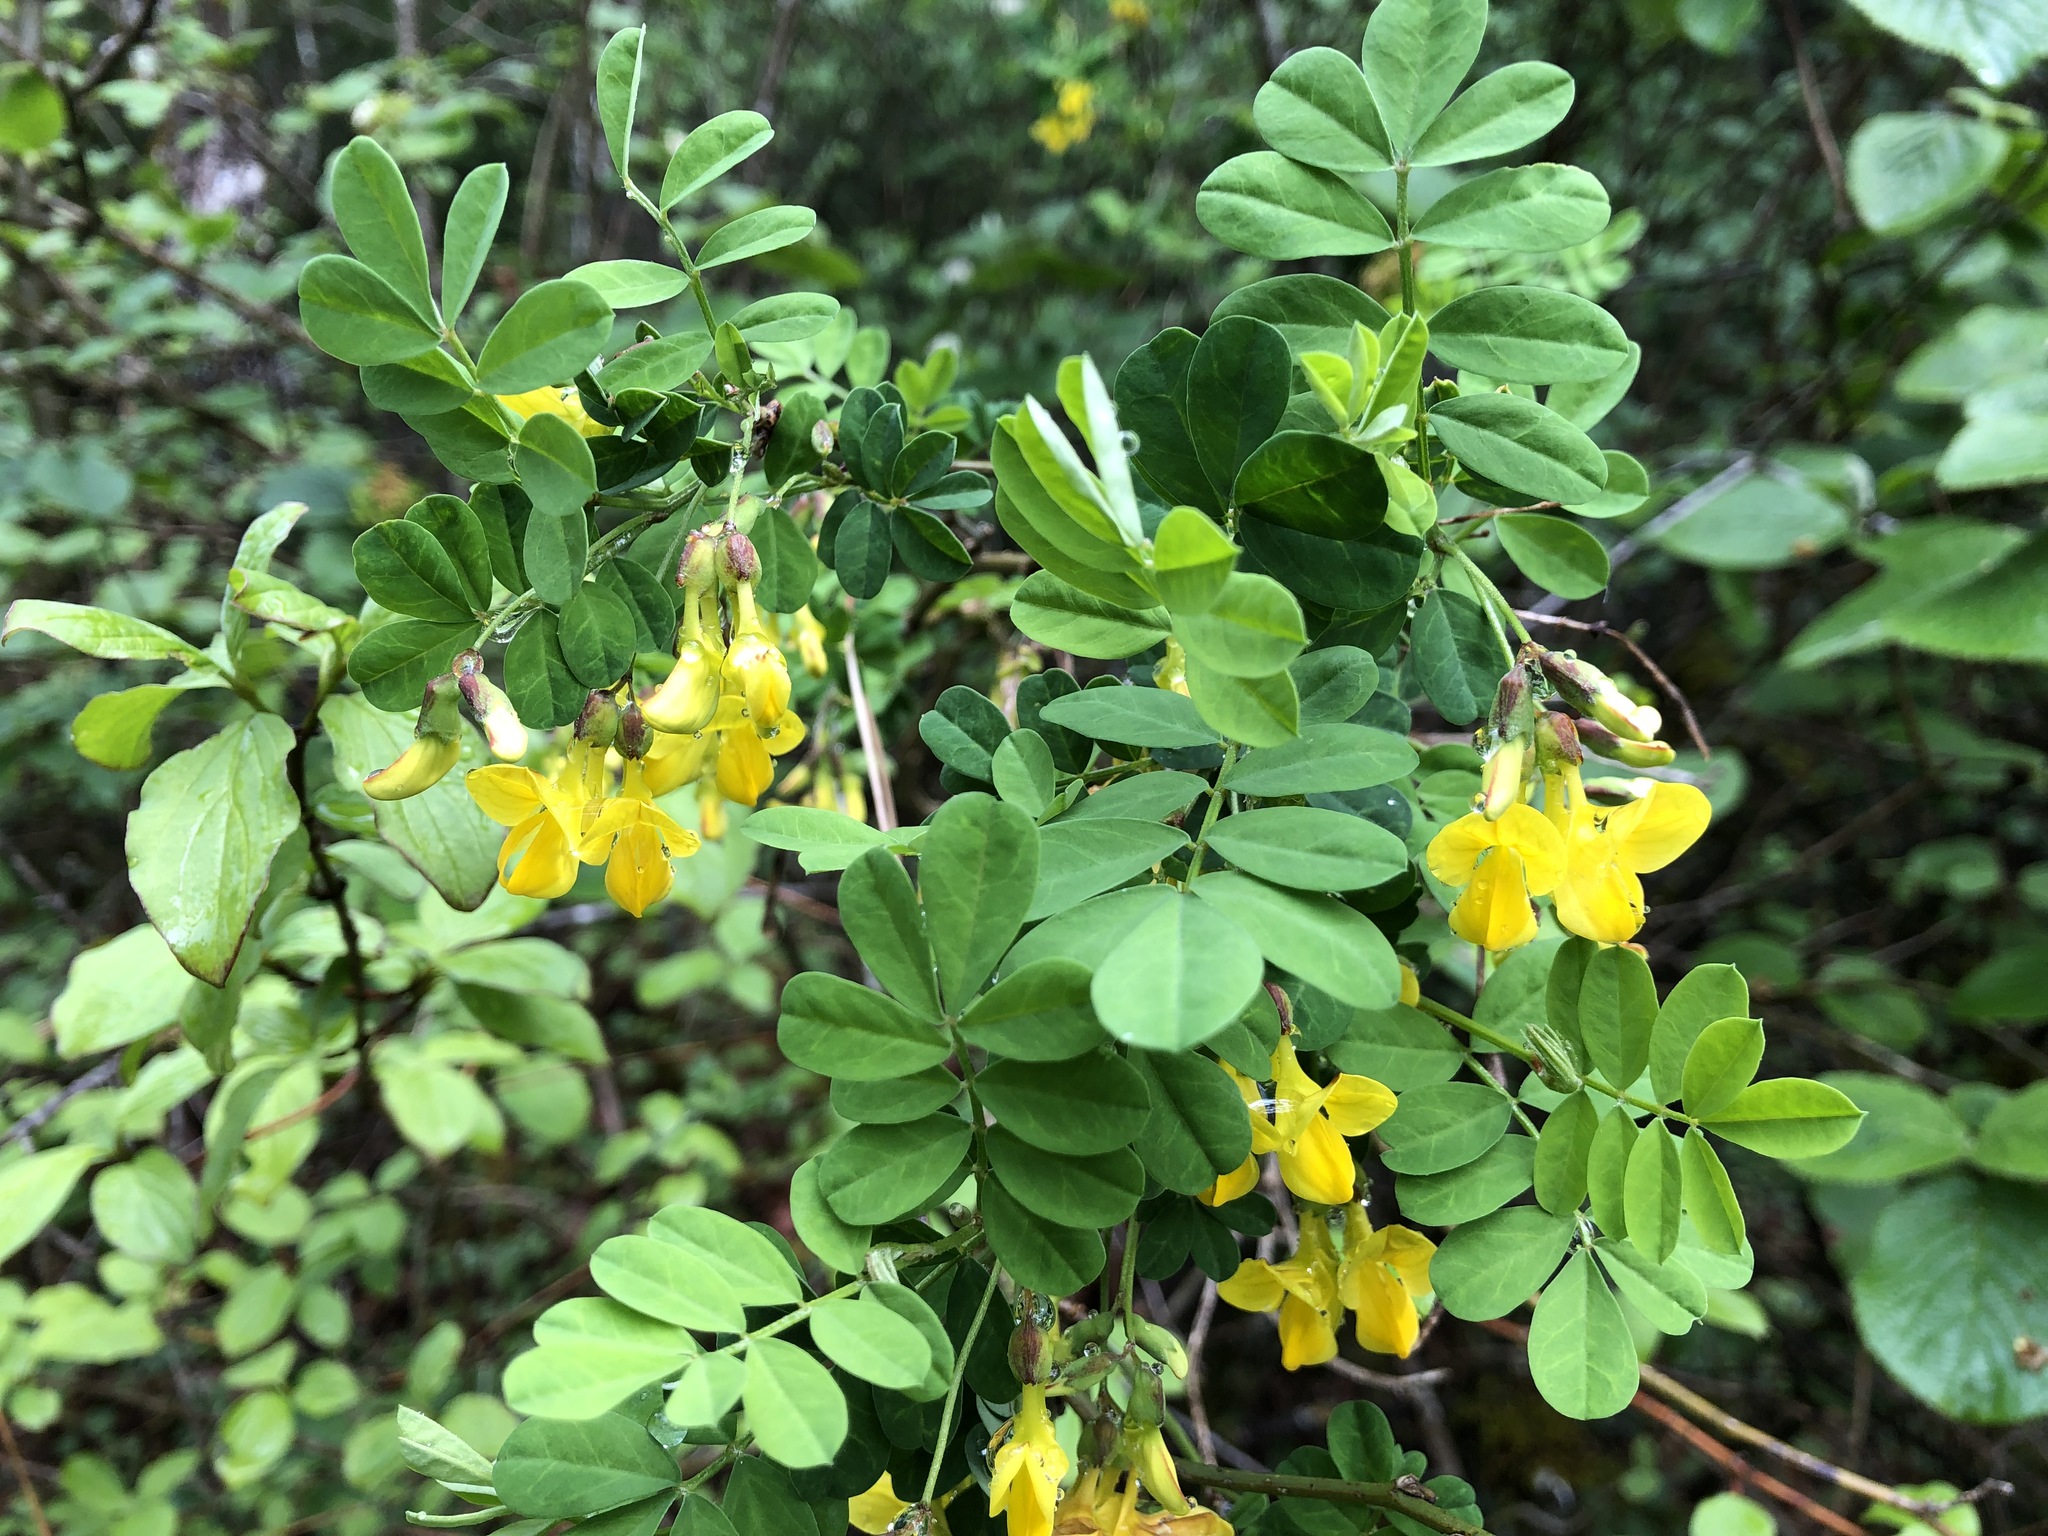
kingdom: Plantae
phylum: Tracheophyta
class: Magnoliopsida
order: Fabales
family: Fabaceae
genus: Hippocrepis
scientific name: Hippocrepis emerus
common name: Scorpion senna
